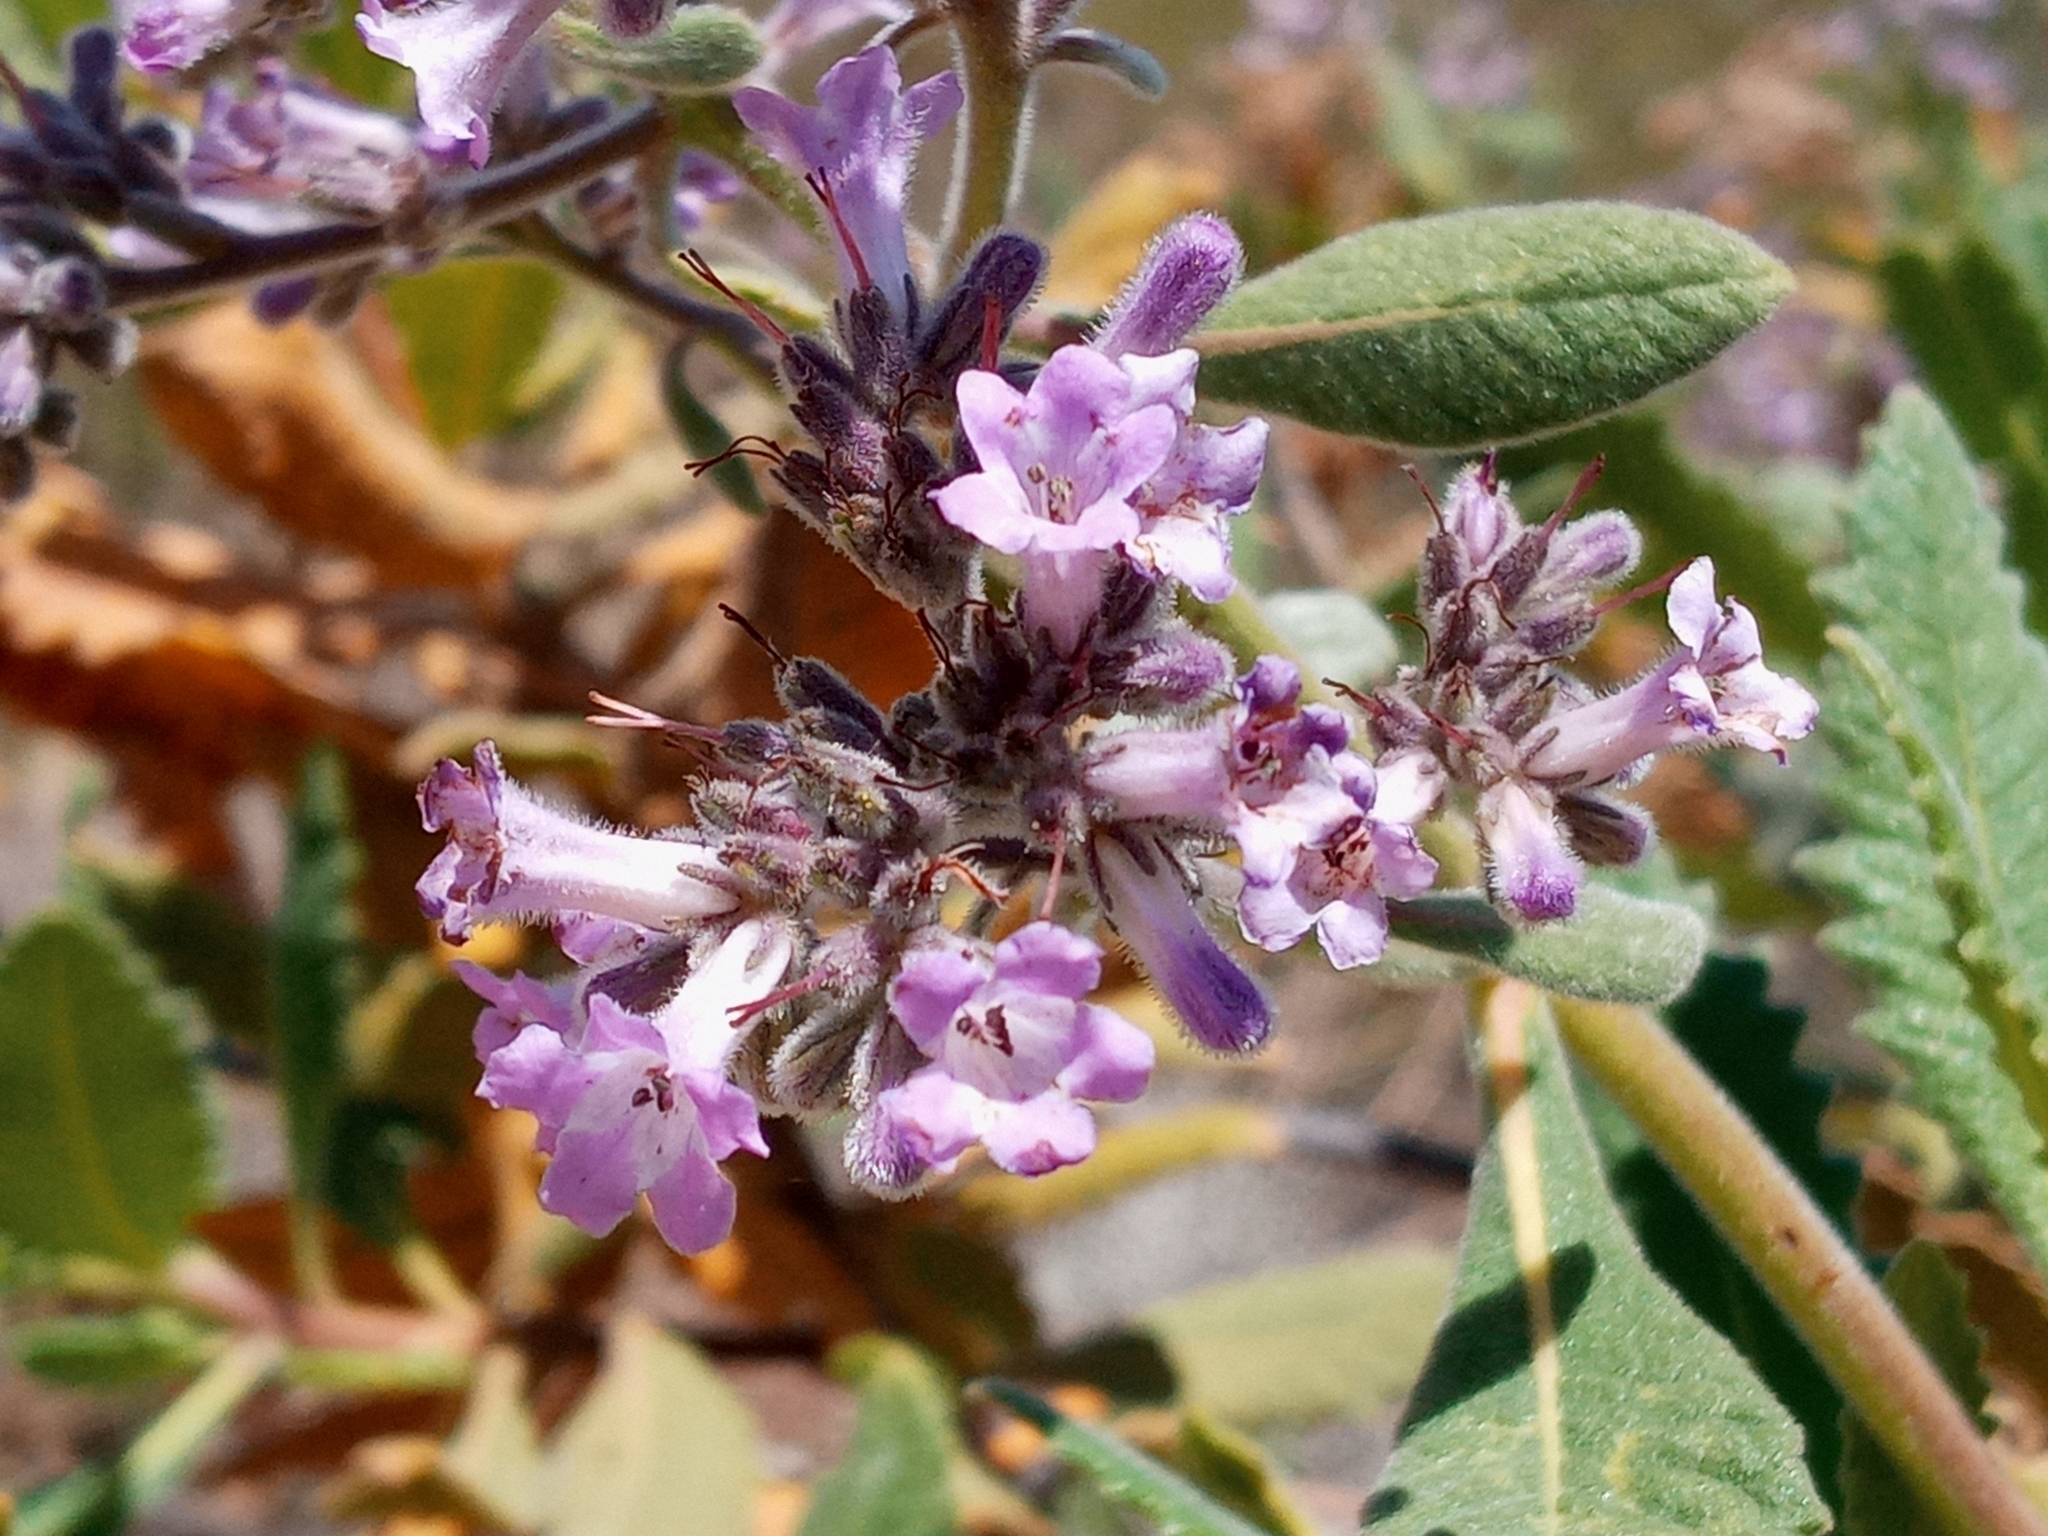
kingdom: Plantae
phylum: Tracheophyta
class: Magnoliopsida
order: Boraginales
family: Namaceae
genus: Eriodictyon
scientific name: Eriodictyon crassifolium
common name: Thick-leaf yerba-santa
